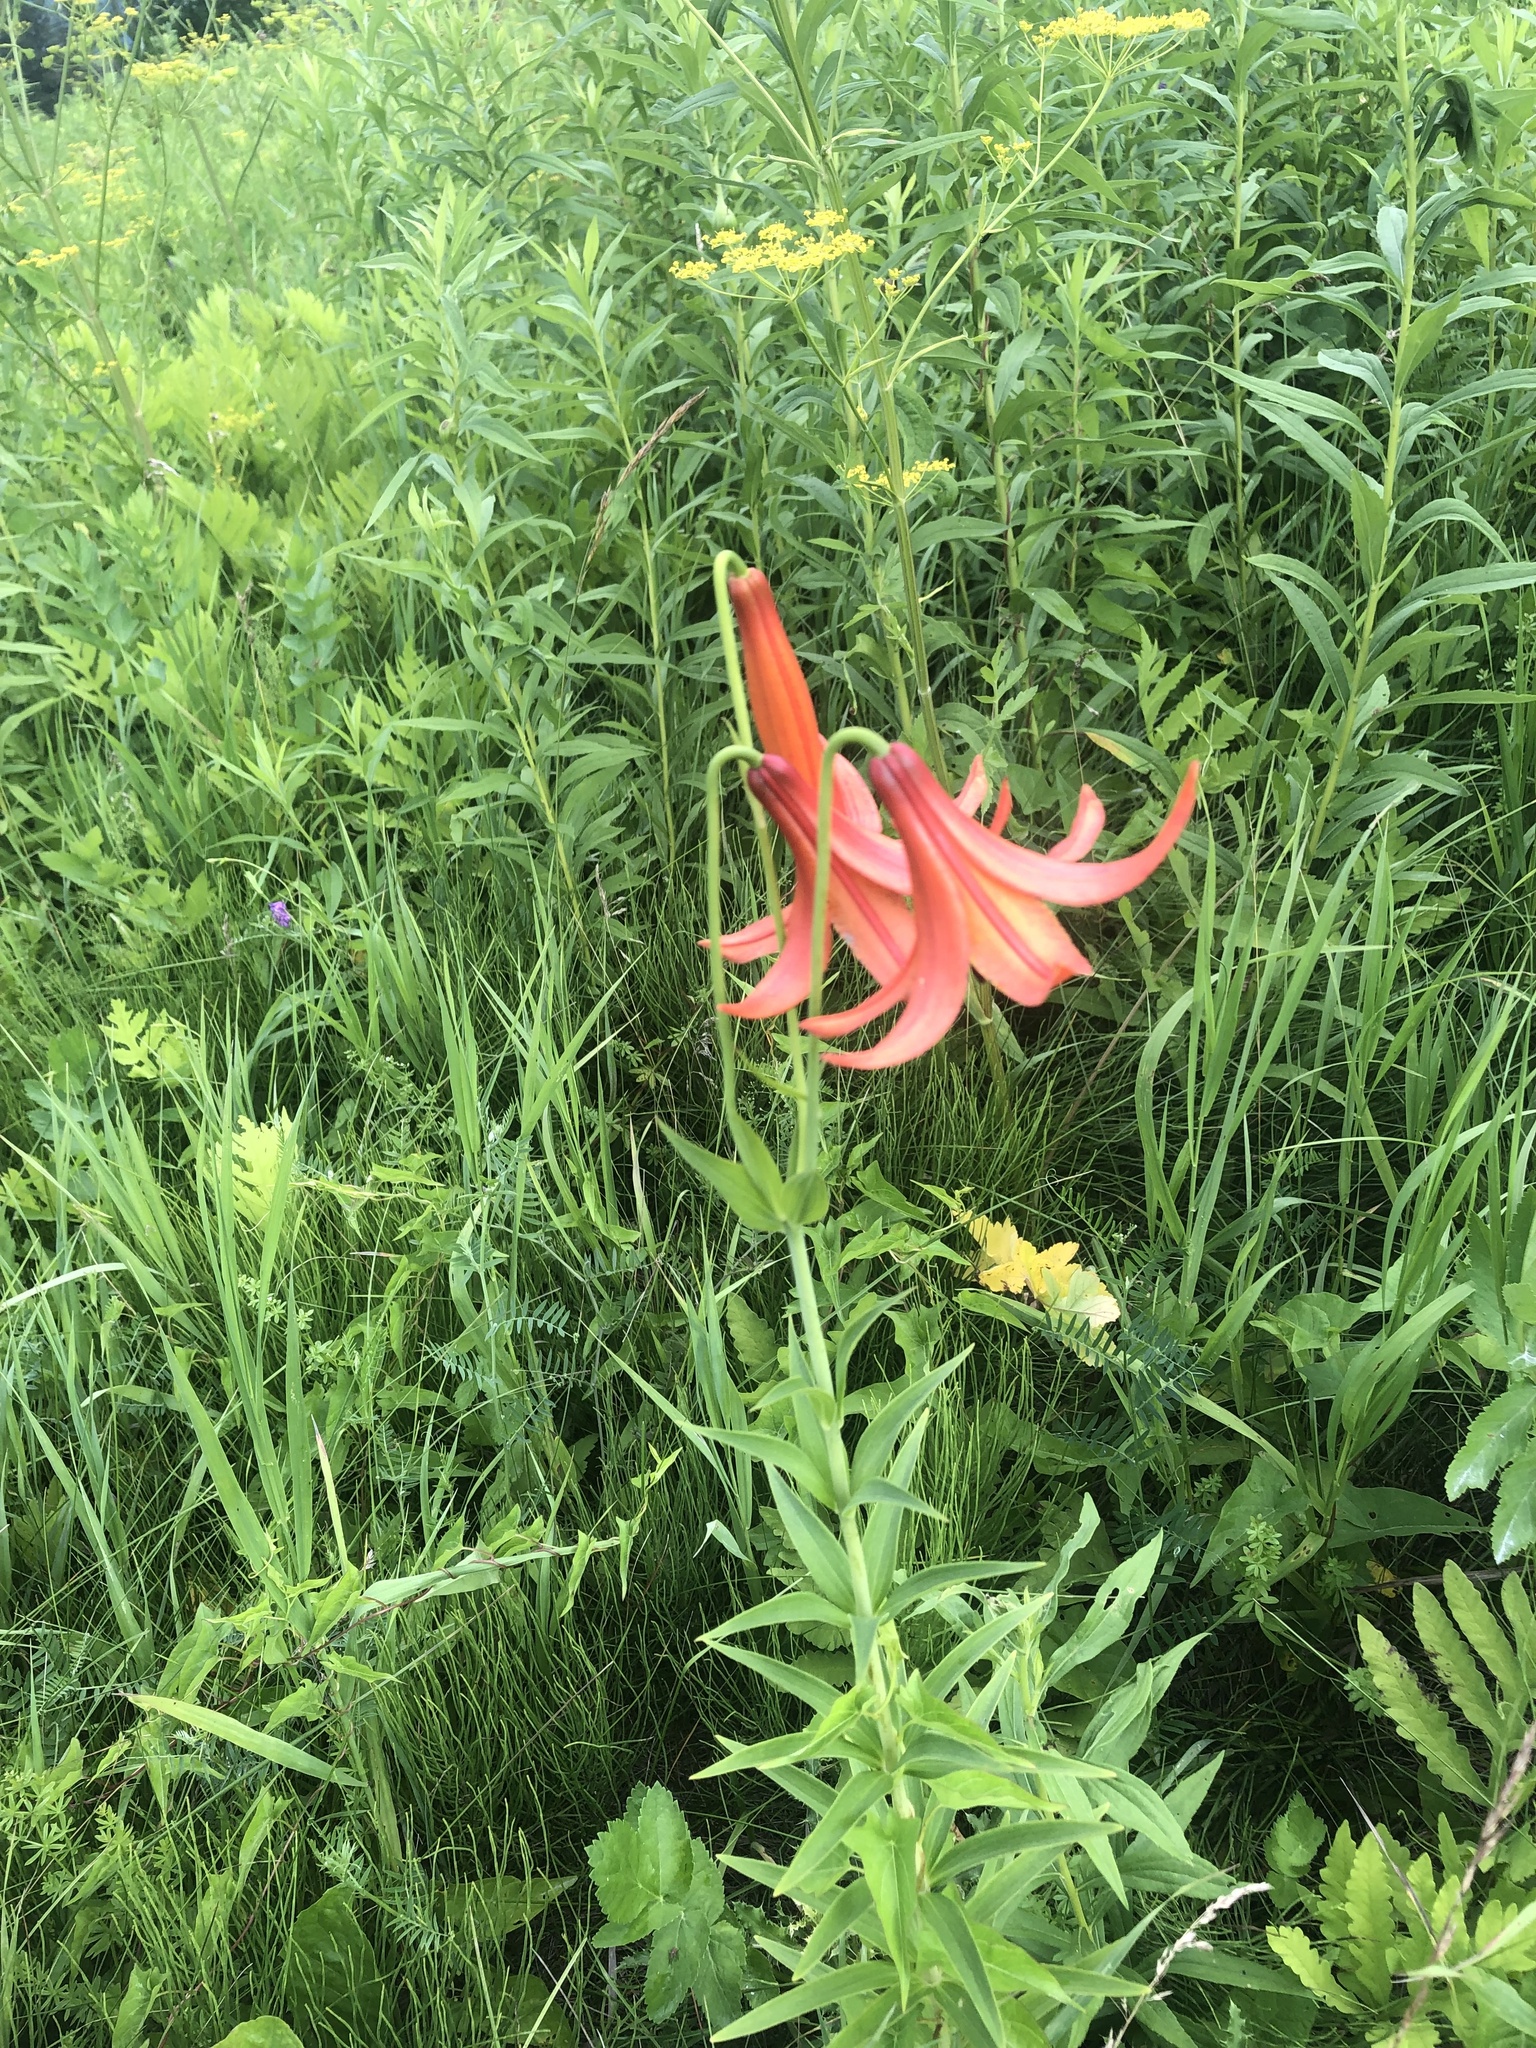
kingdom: Plantae
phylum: Tracheophyta
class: Liliopsida
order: Liliales
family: Liliaceae
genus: Lilium
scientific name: Lilium canadense
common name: Canada lily
